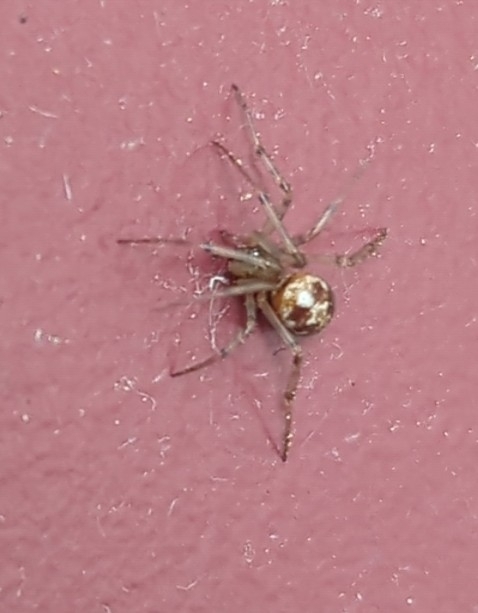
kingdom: Animalia
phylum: Arthropoda
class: Arachnida
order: Araneae
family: Theridiidae
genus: Steatoda
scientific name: Steatoda triangulosa
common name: Triangulate bud spider
